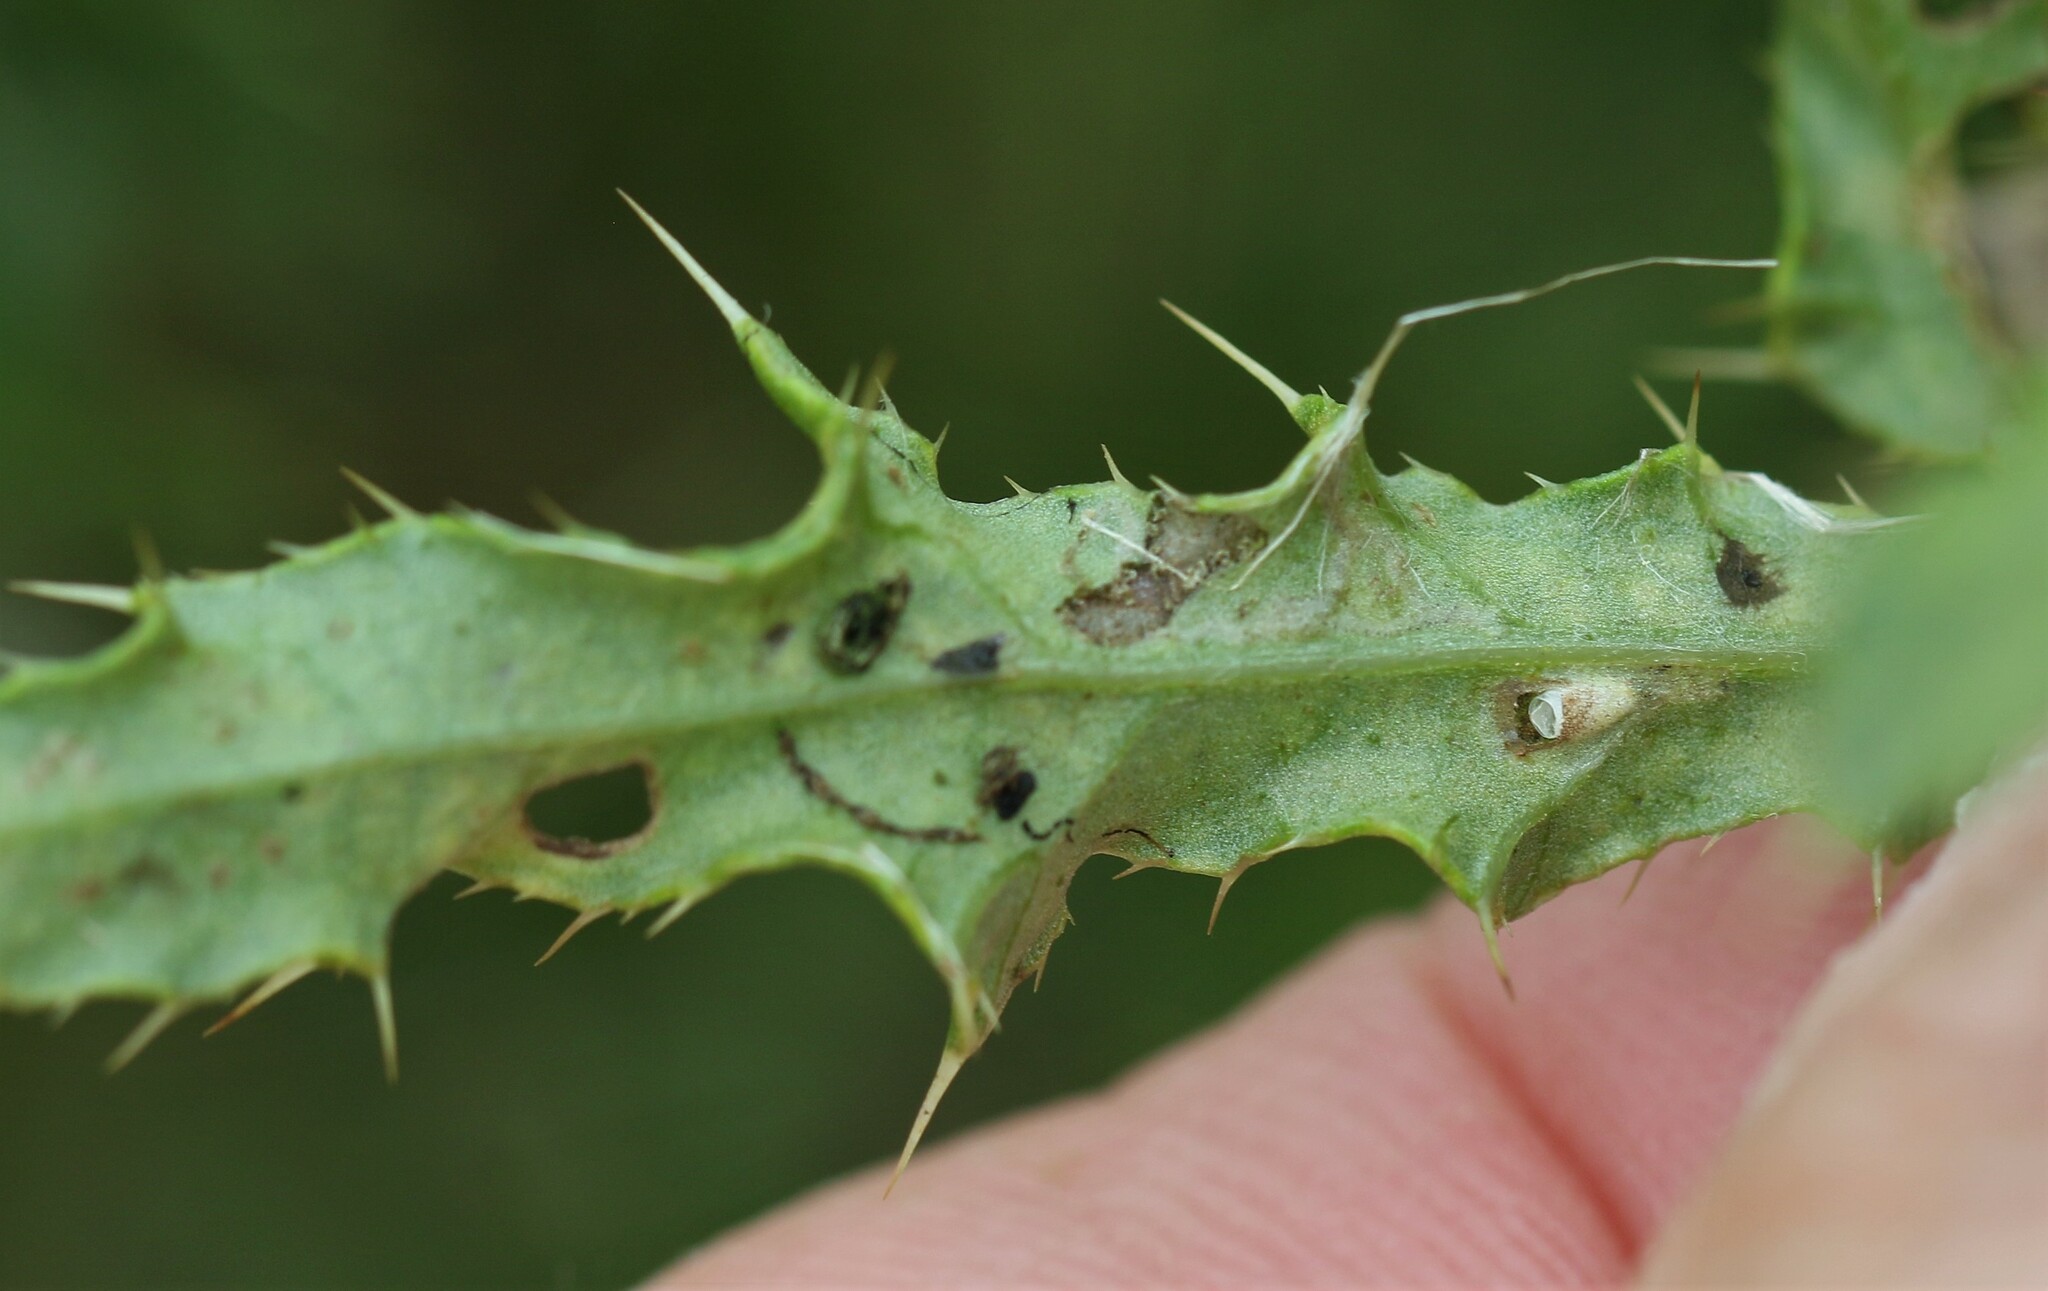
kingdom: Animalia
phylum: Arthropoda
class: Insecta
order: Diptera
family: Agromyzidae
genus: Phytomyza
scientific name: Phytomyza spinaciae
